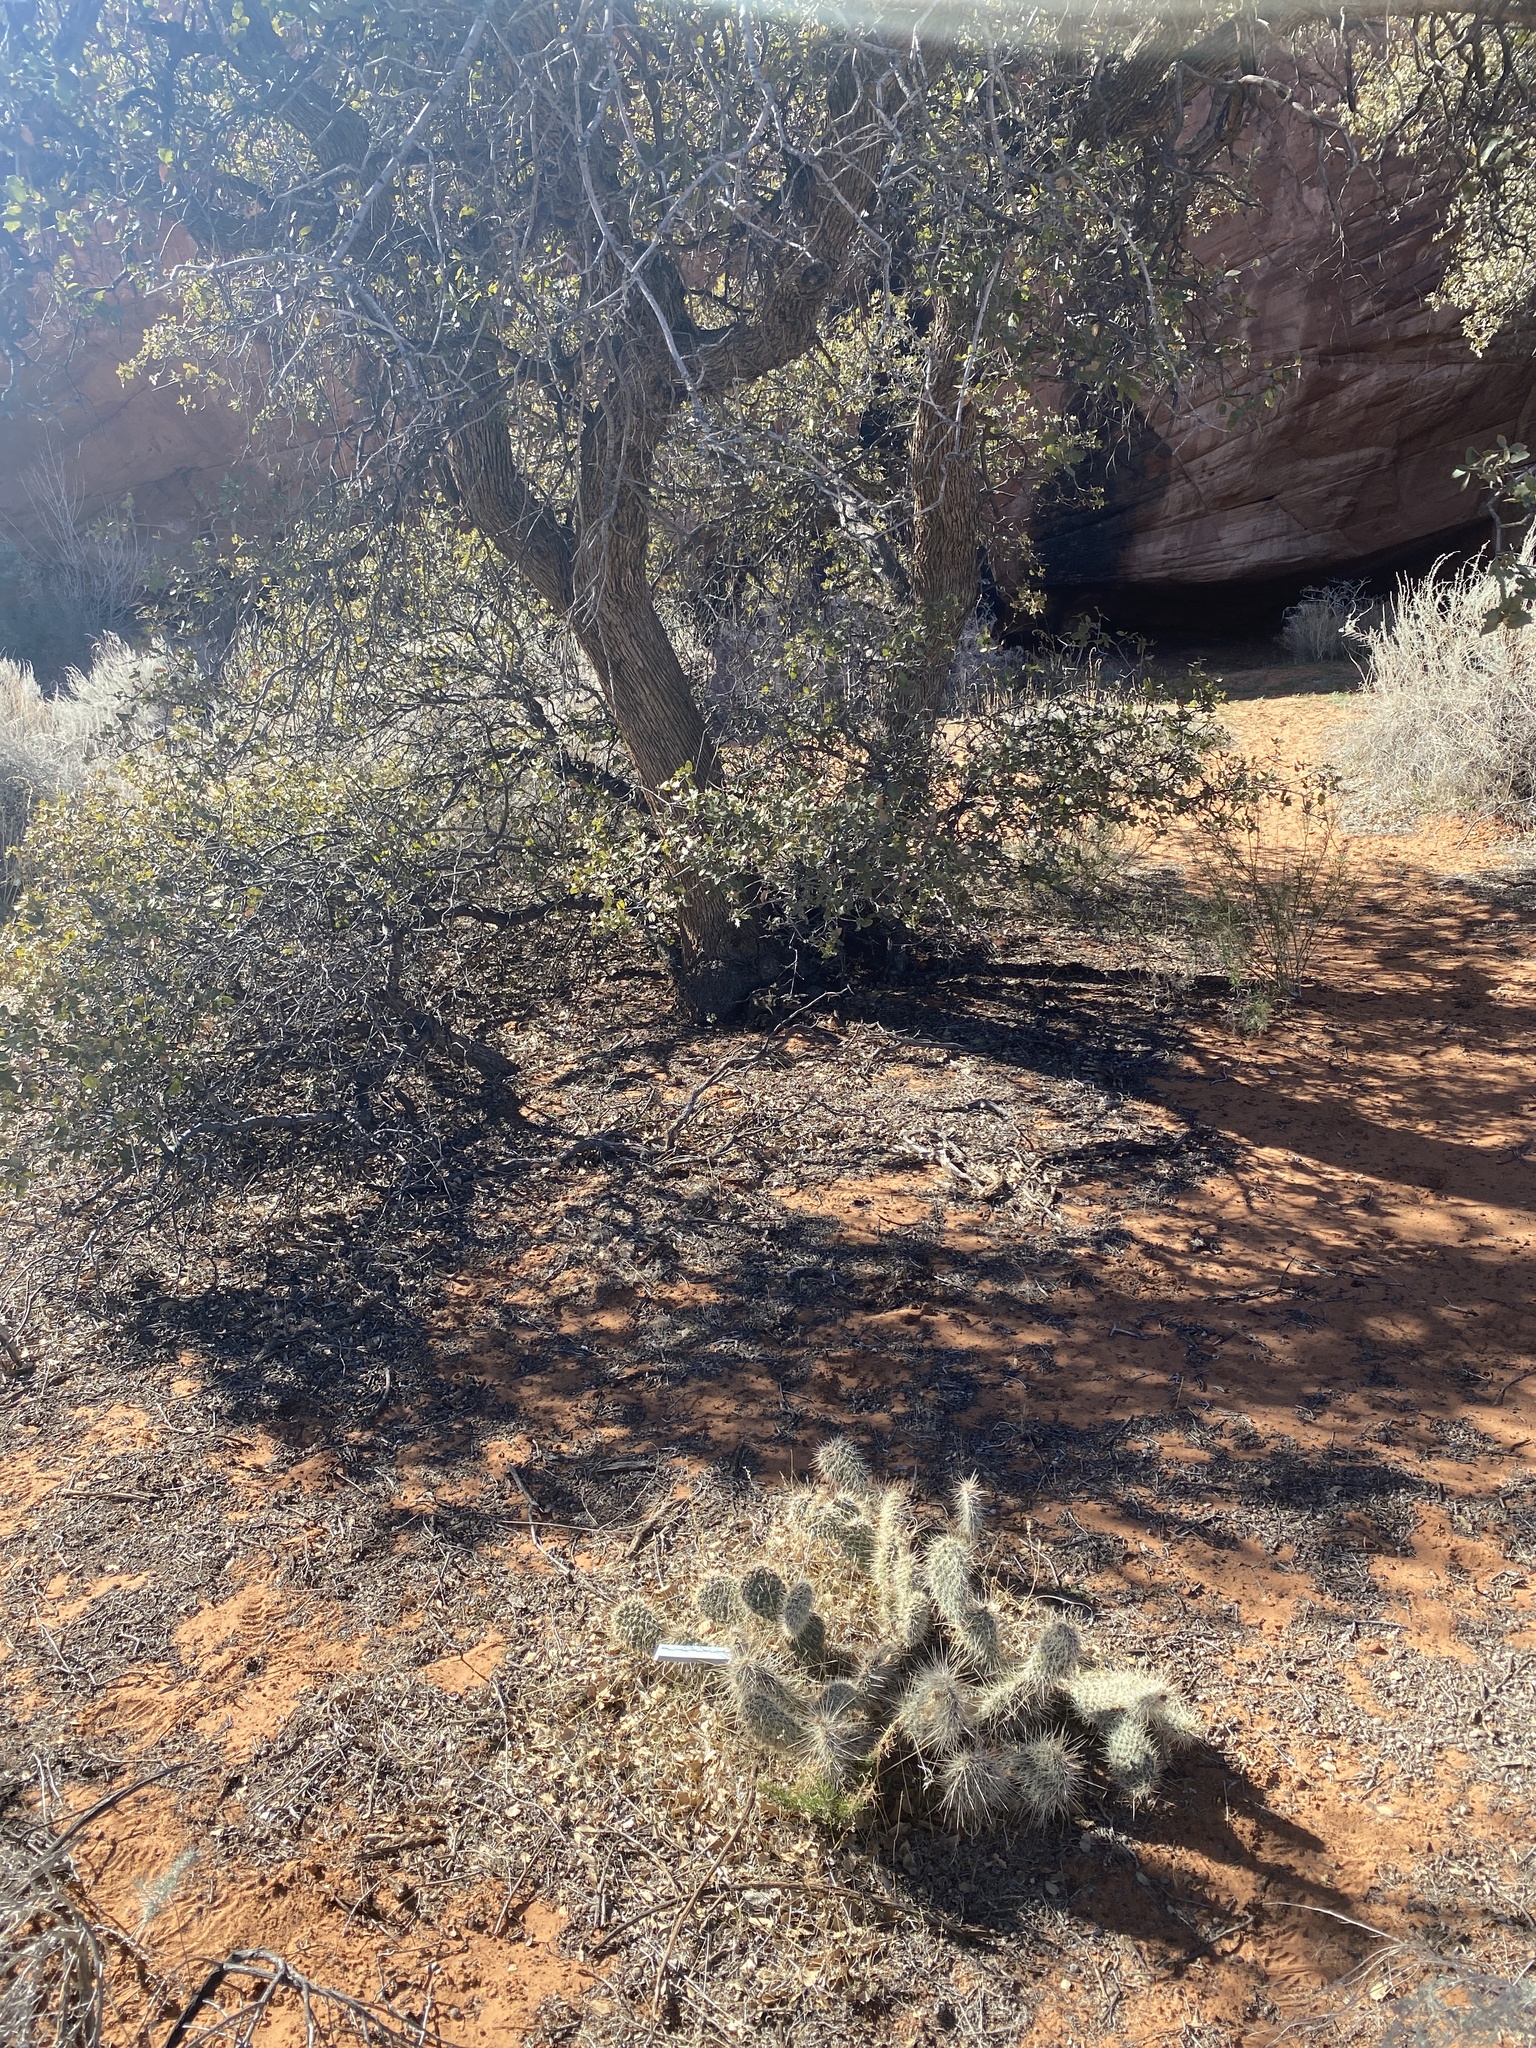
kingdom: Plantae
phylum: Tracheophyta
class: Magnoliopsida
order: Caryophyllales
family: Cactaceae
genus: Opuntia
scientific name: Opuntia polyacantha
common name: Plains prickly-pear
